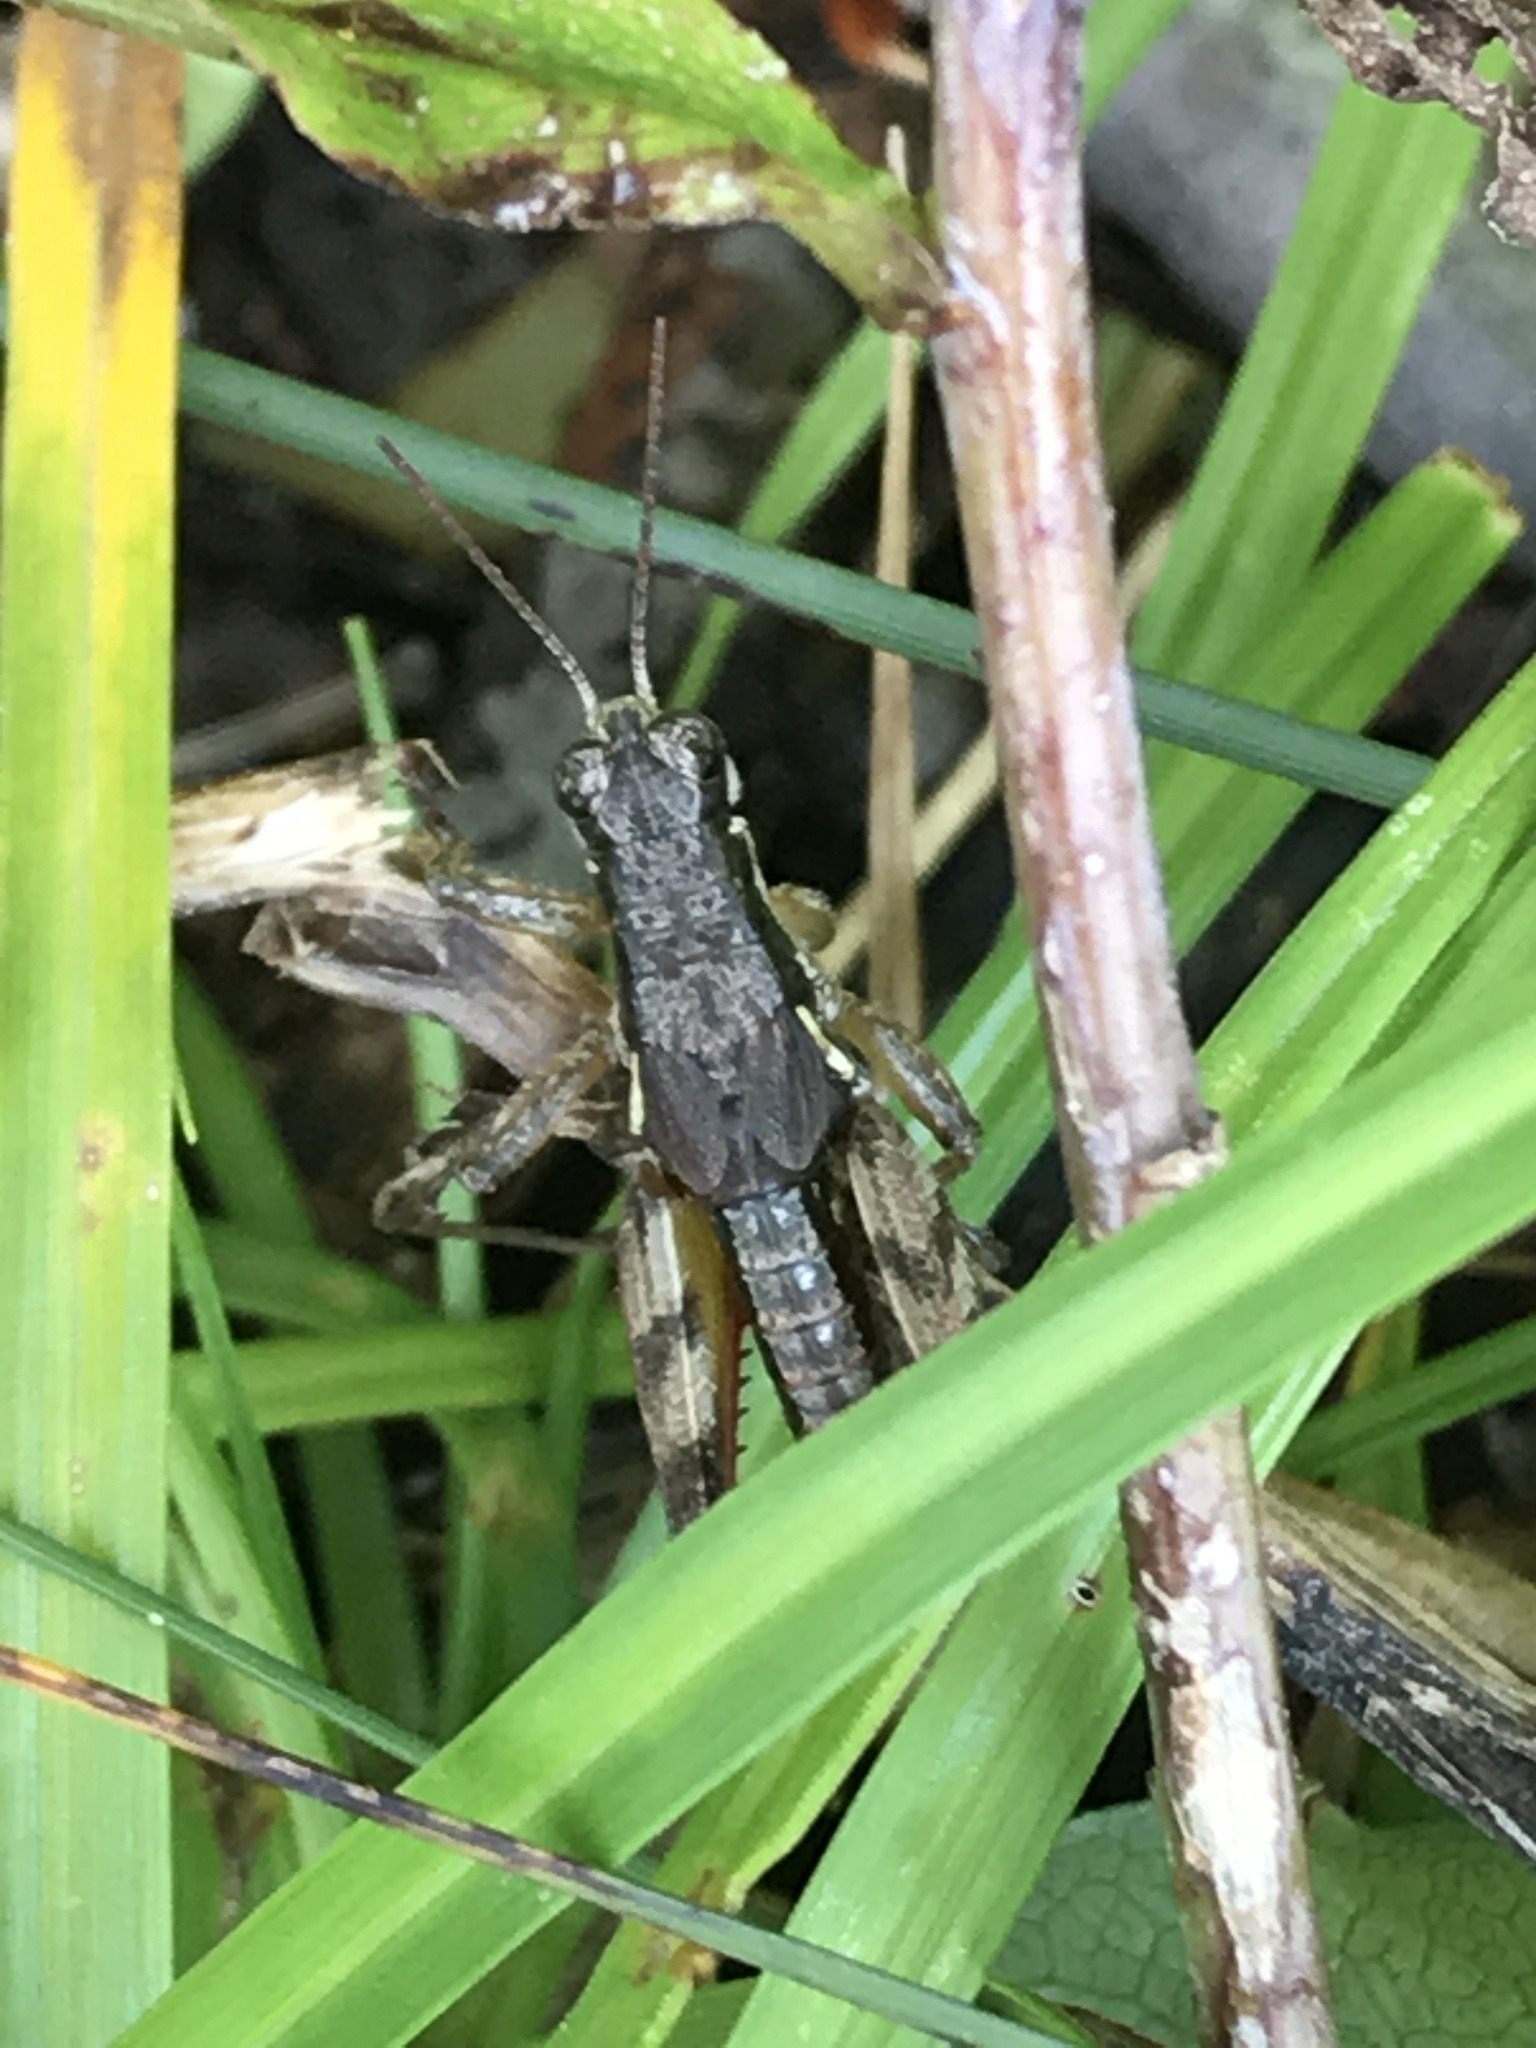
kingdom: Animalia
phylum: Arthropoda
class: Insecta
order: Orthoptera
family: Acrididae
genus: Melanoplus
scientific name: Melanoplus islandicus
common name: Island locust
